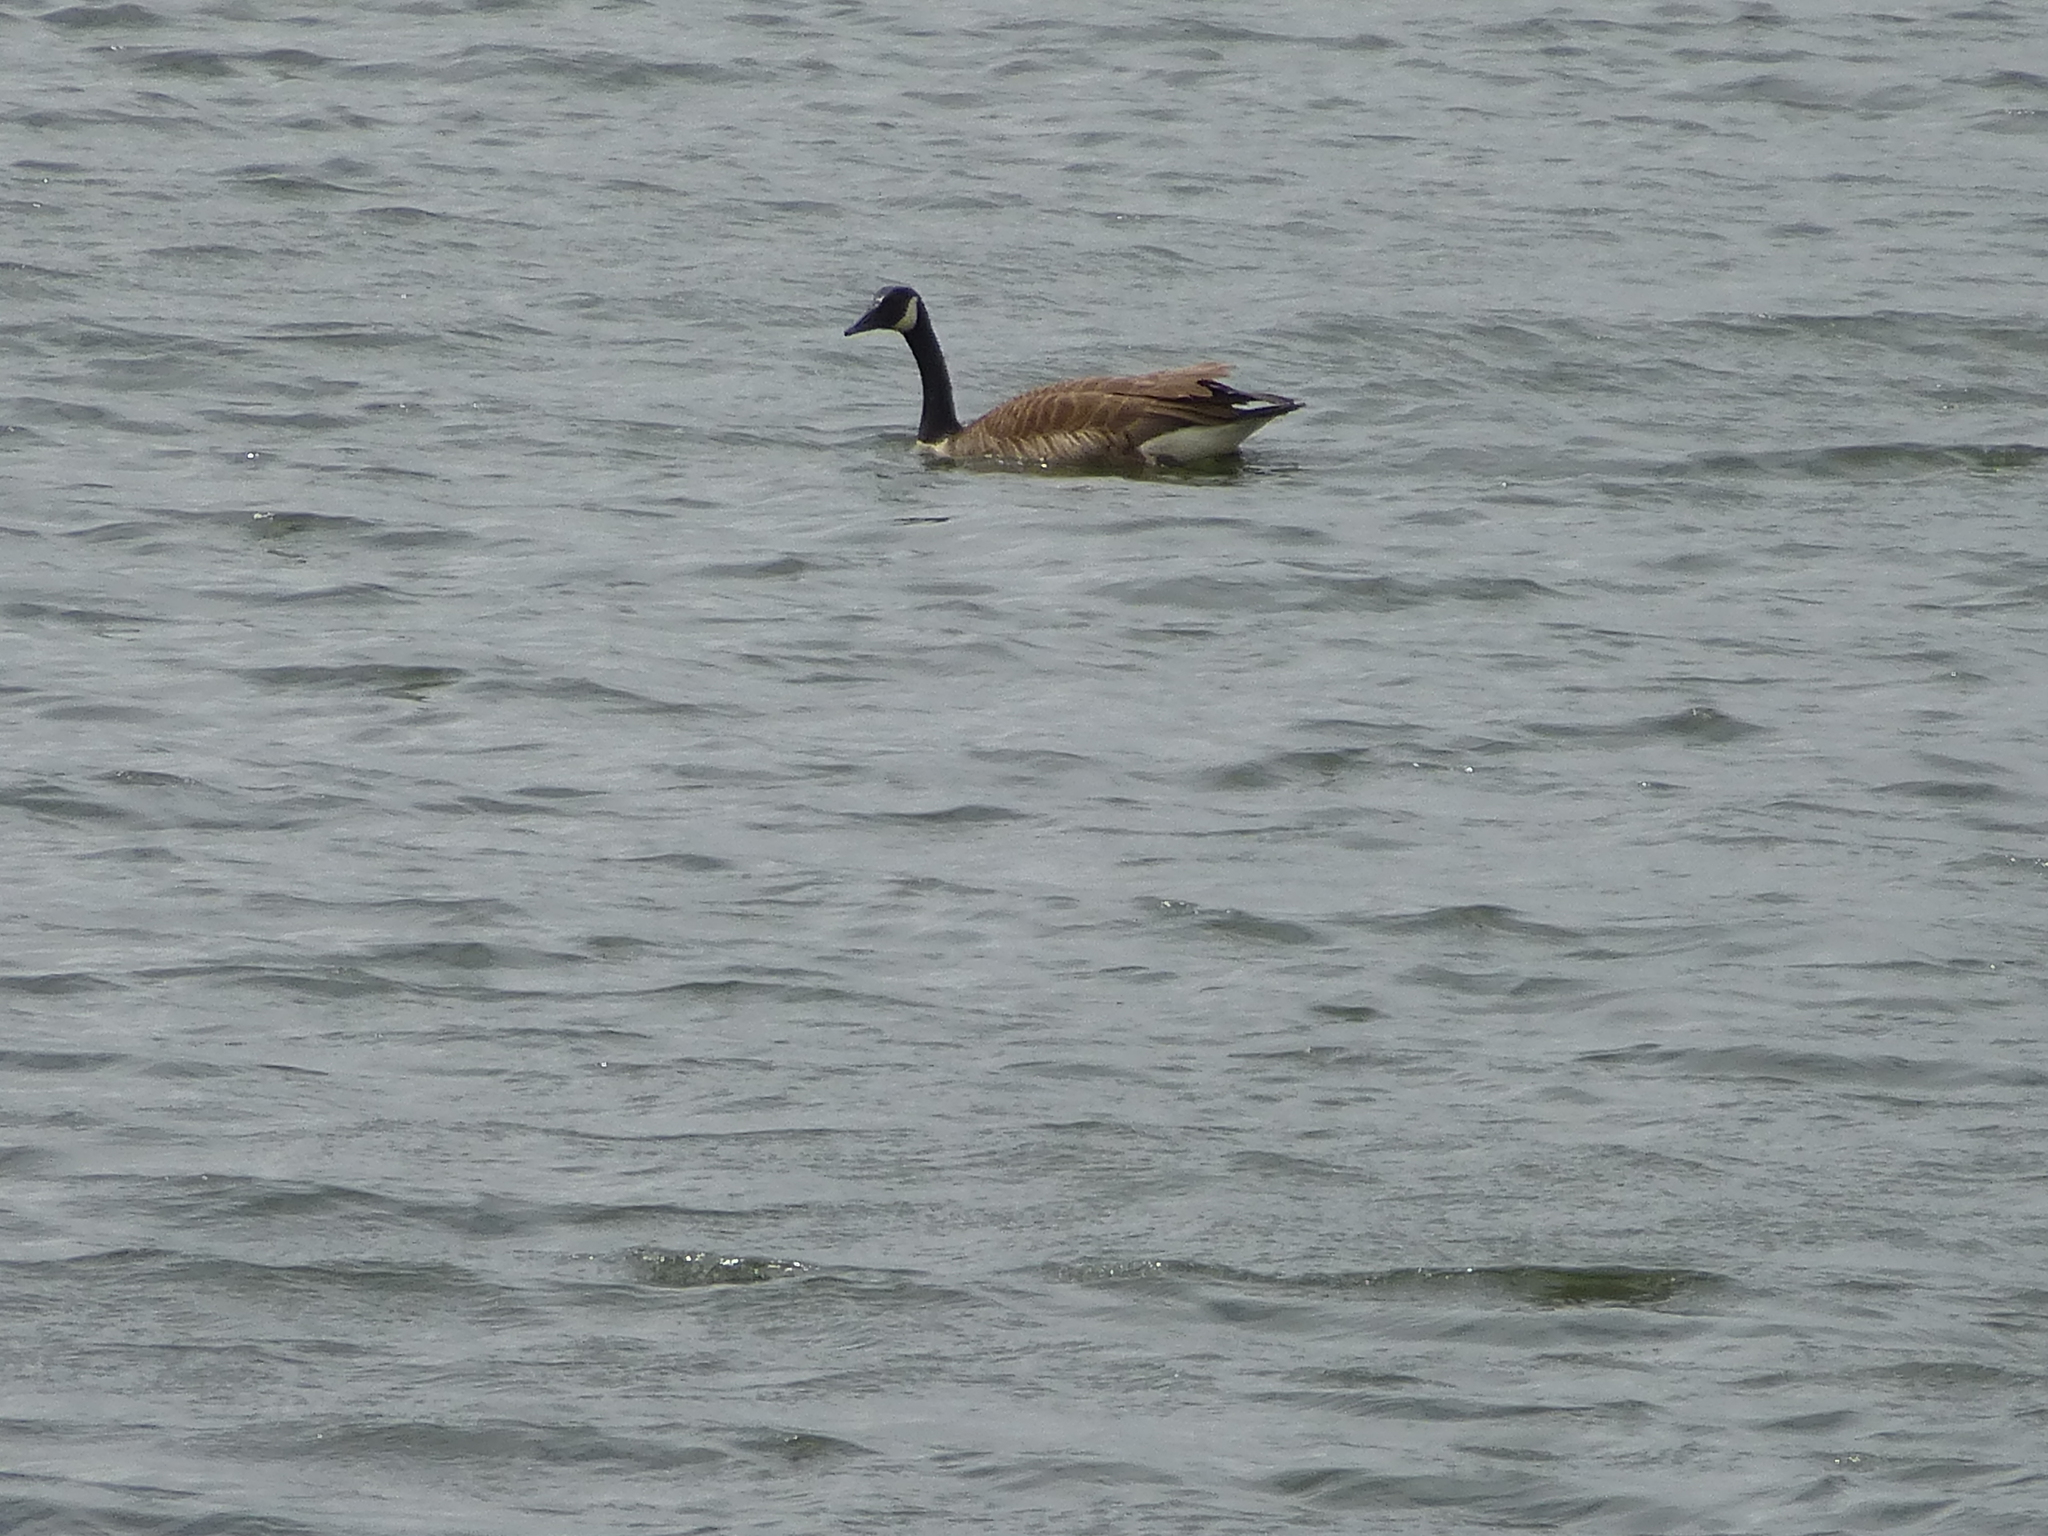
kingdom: Animalia
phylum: Chordata
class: Aves
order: Anseriformes
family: Anatidae
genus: Branta
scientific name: Branta canadensis
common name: Canada goose
